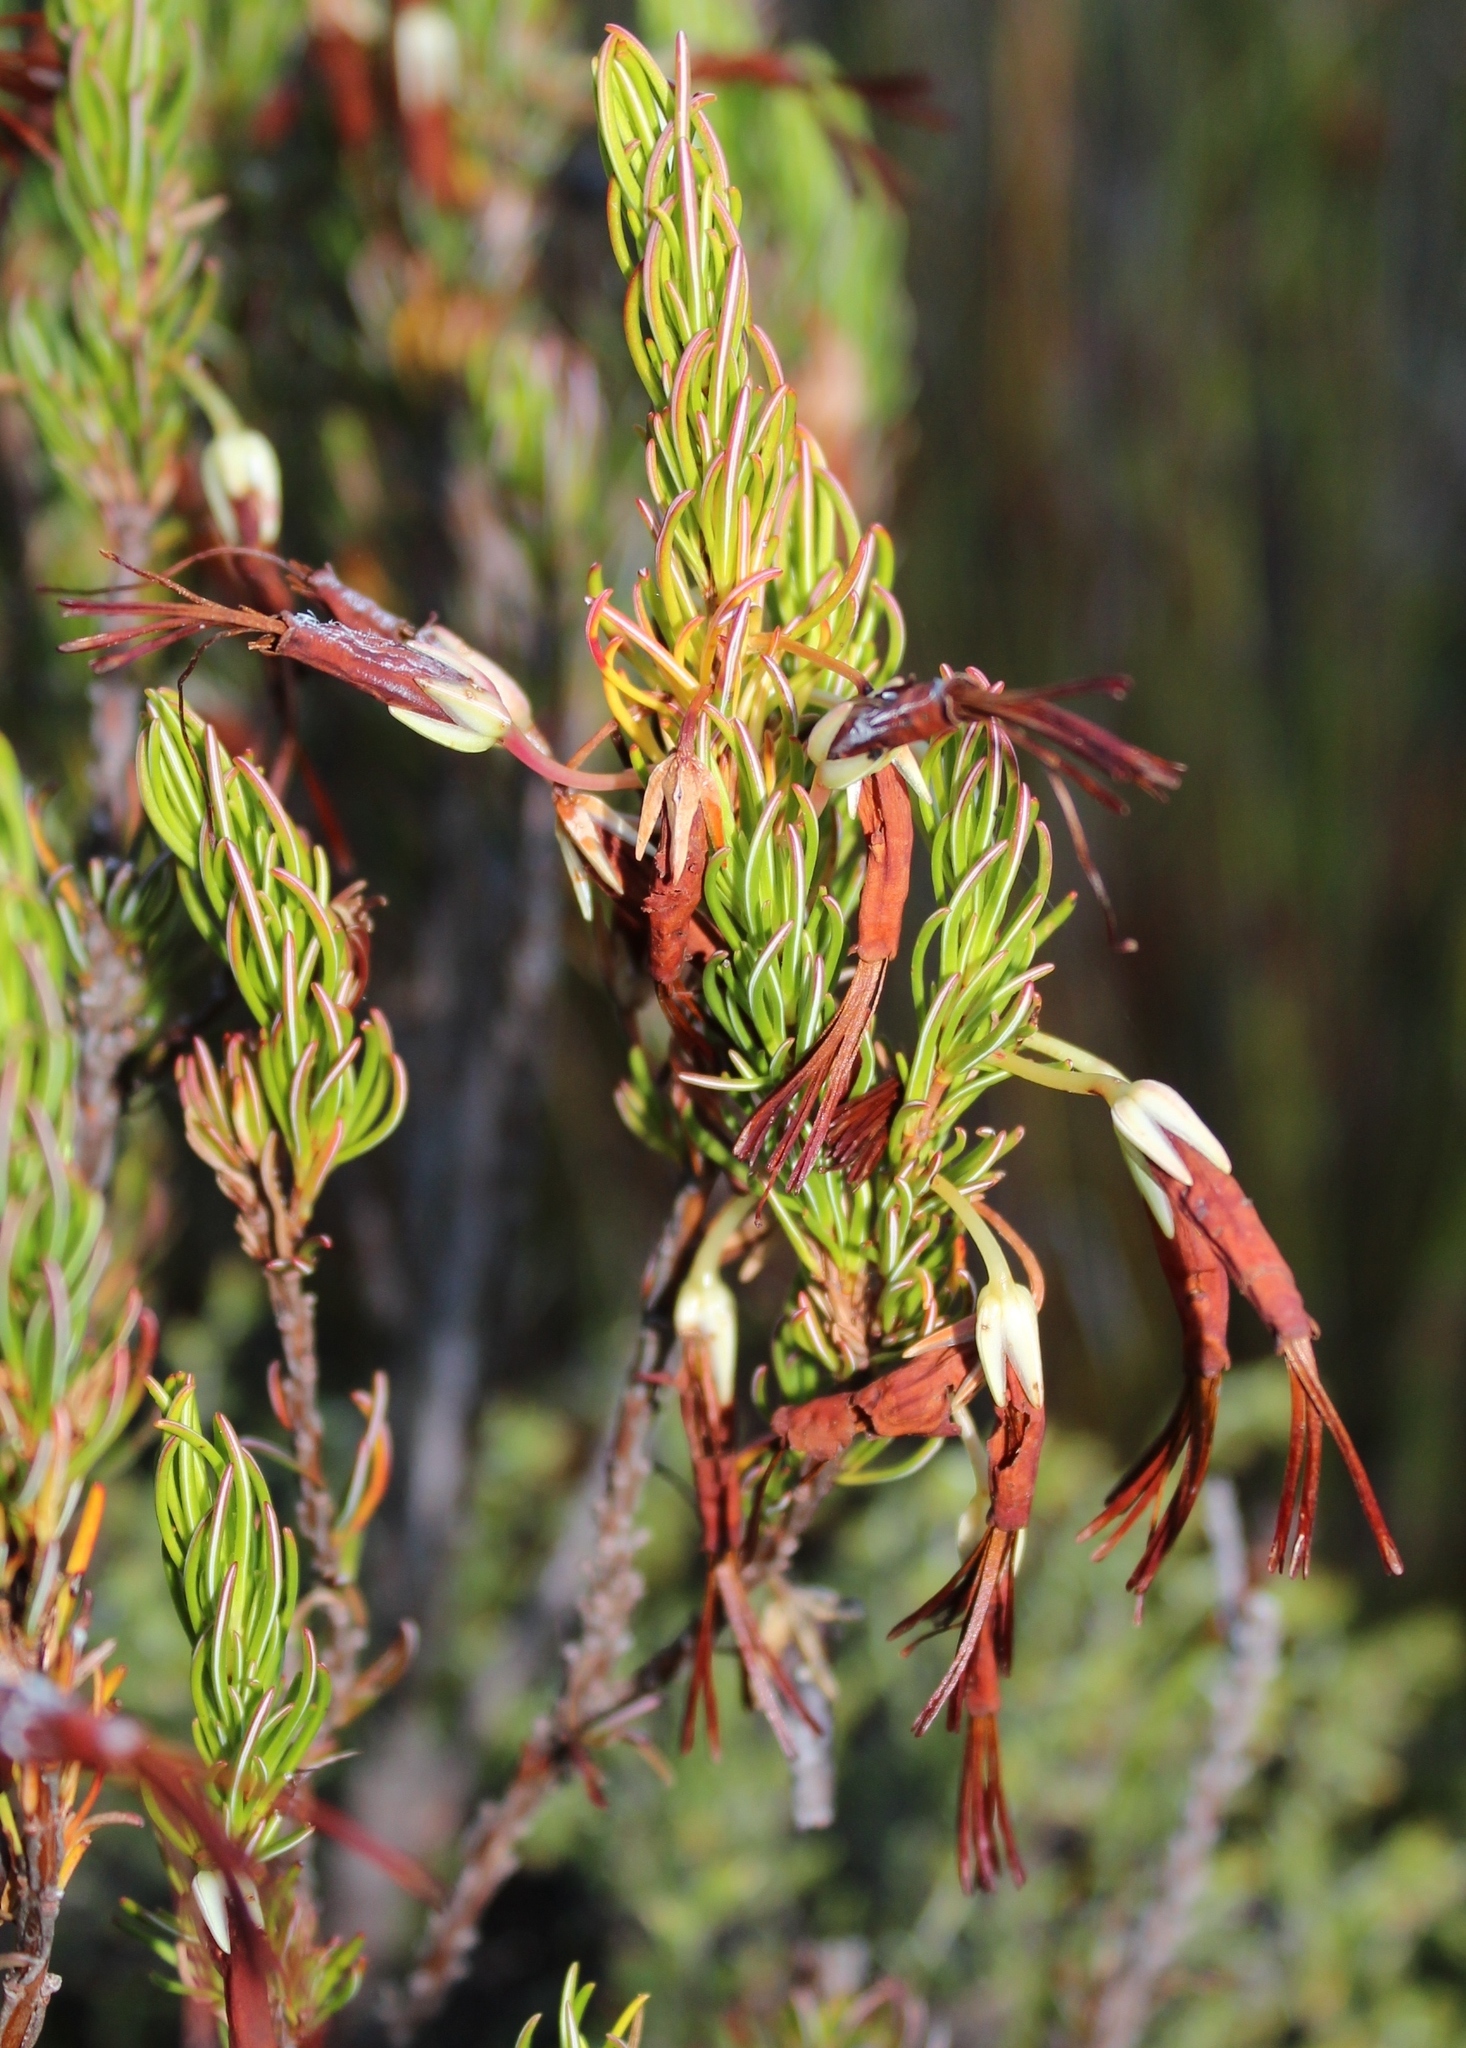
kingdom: Plantae
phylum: Tracheophyta
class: Magnoliopsida
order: Ericales
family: Ericaceae
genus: Erica
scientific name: Erica plukenetii
